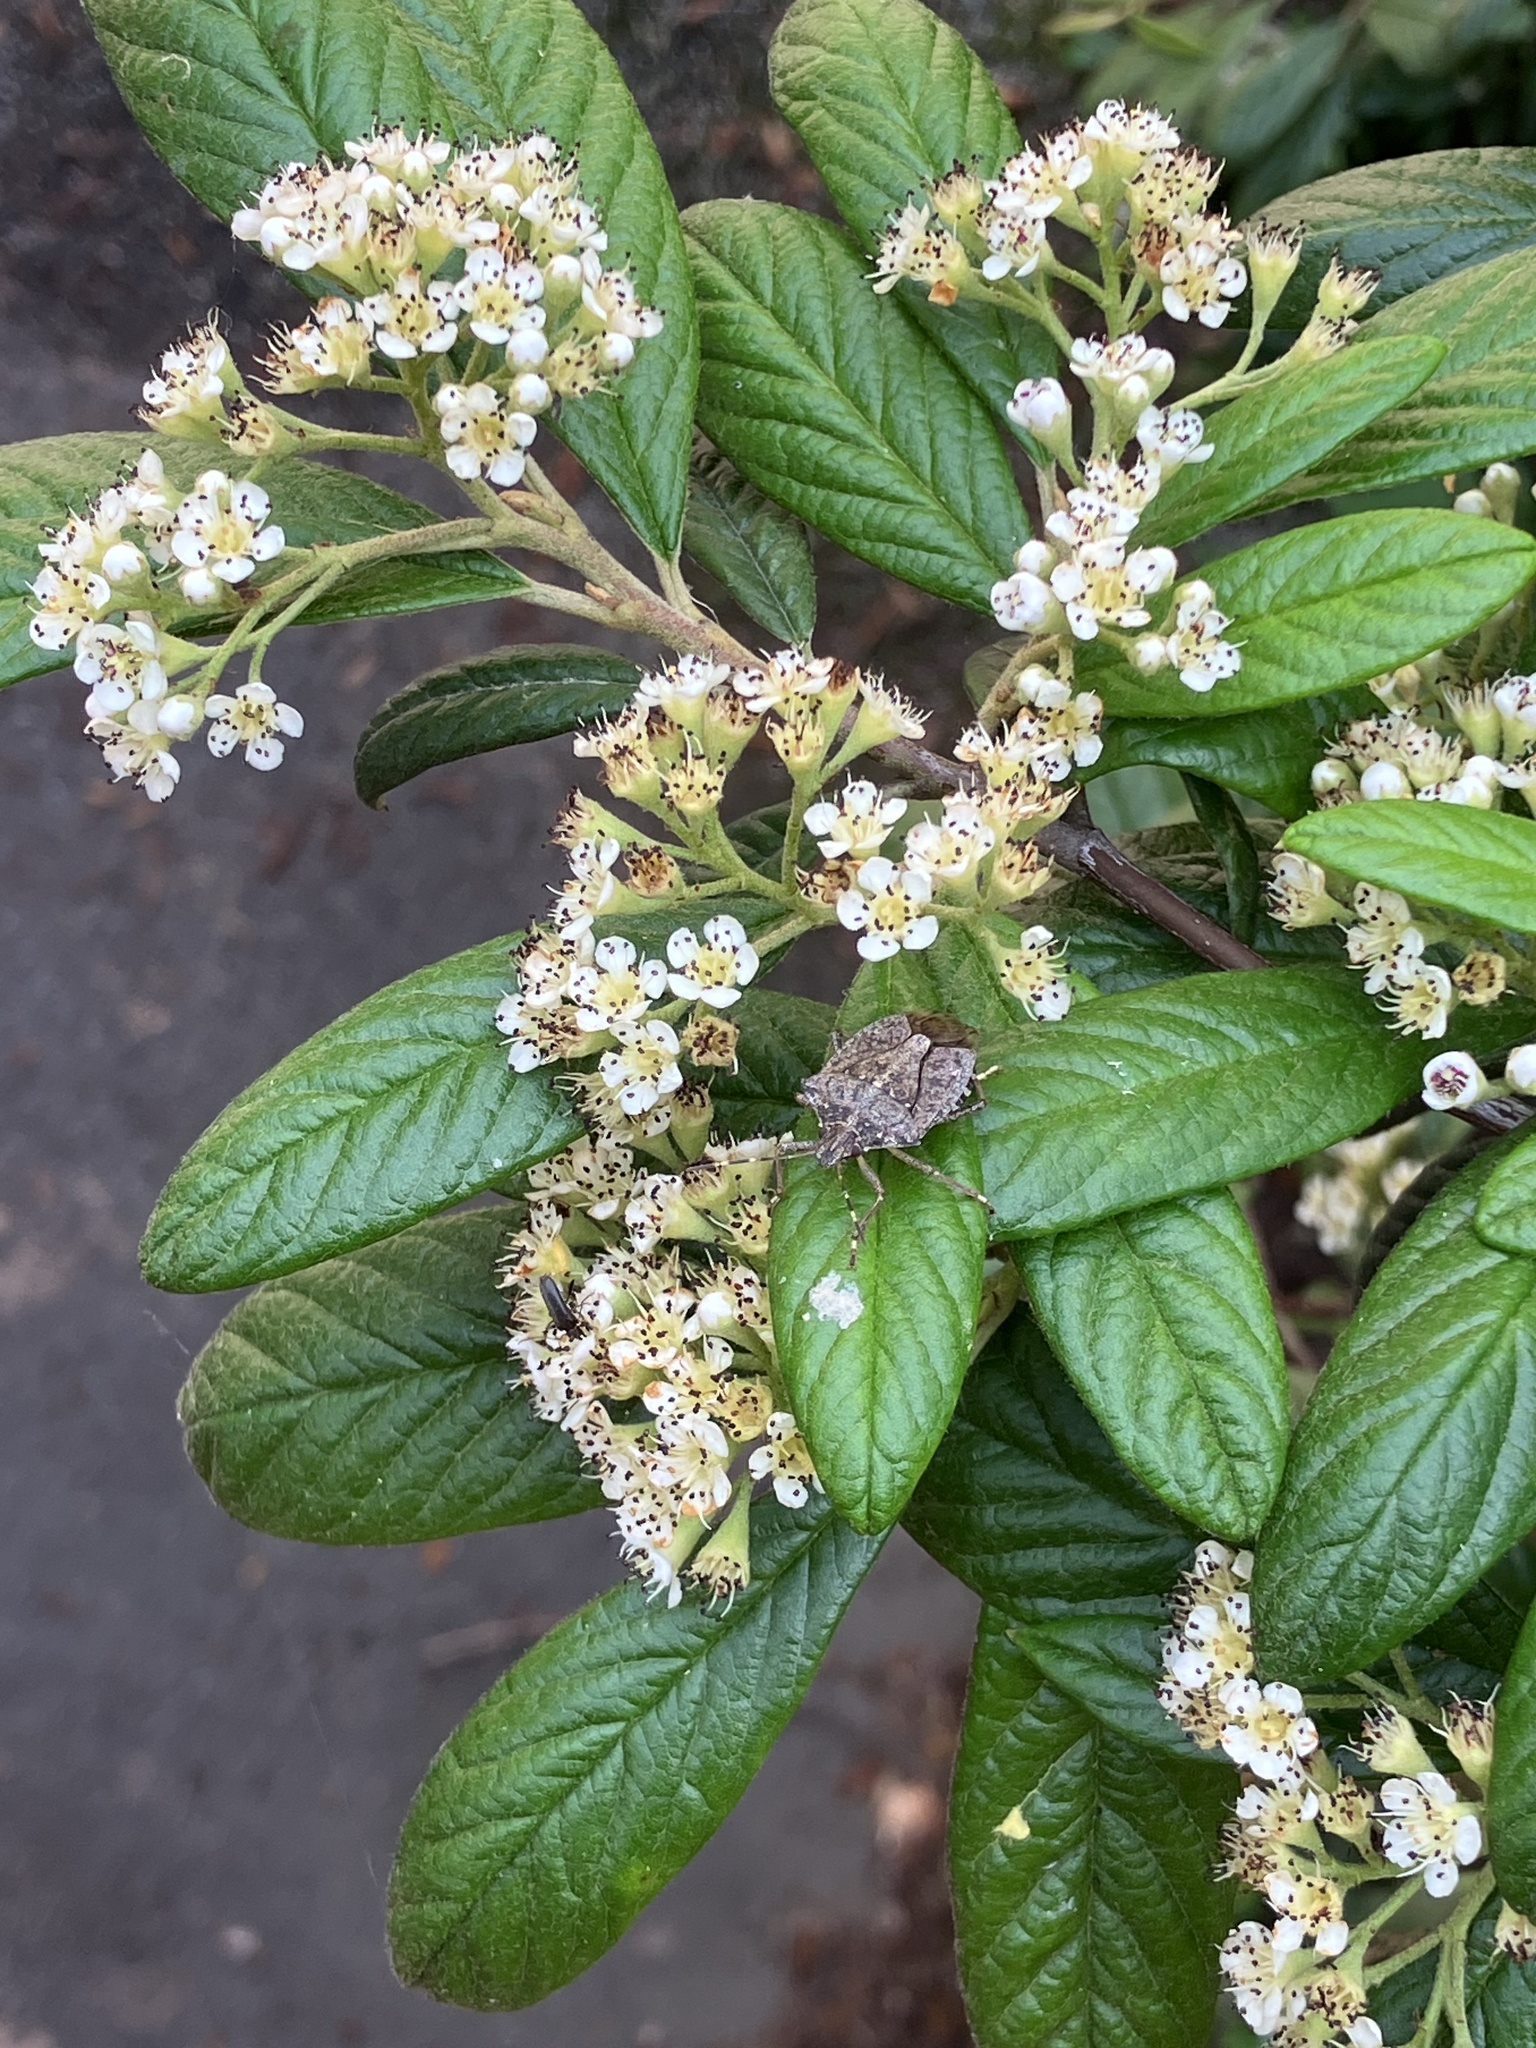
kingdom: Animalia
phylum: Arthropoda
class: Insecta
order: Hemiptera
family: Pentatomidae
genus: Halyomorpha
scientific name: Halyomorpha halys
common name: Brown marmorated stink bug
